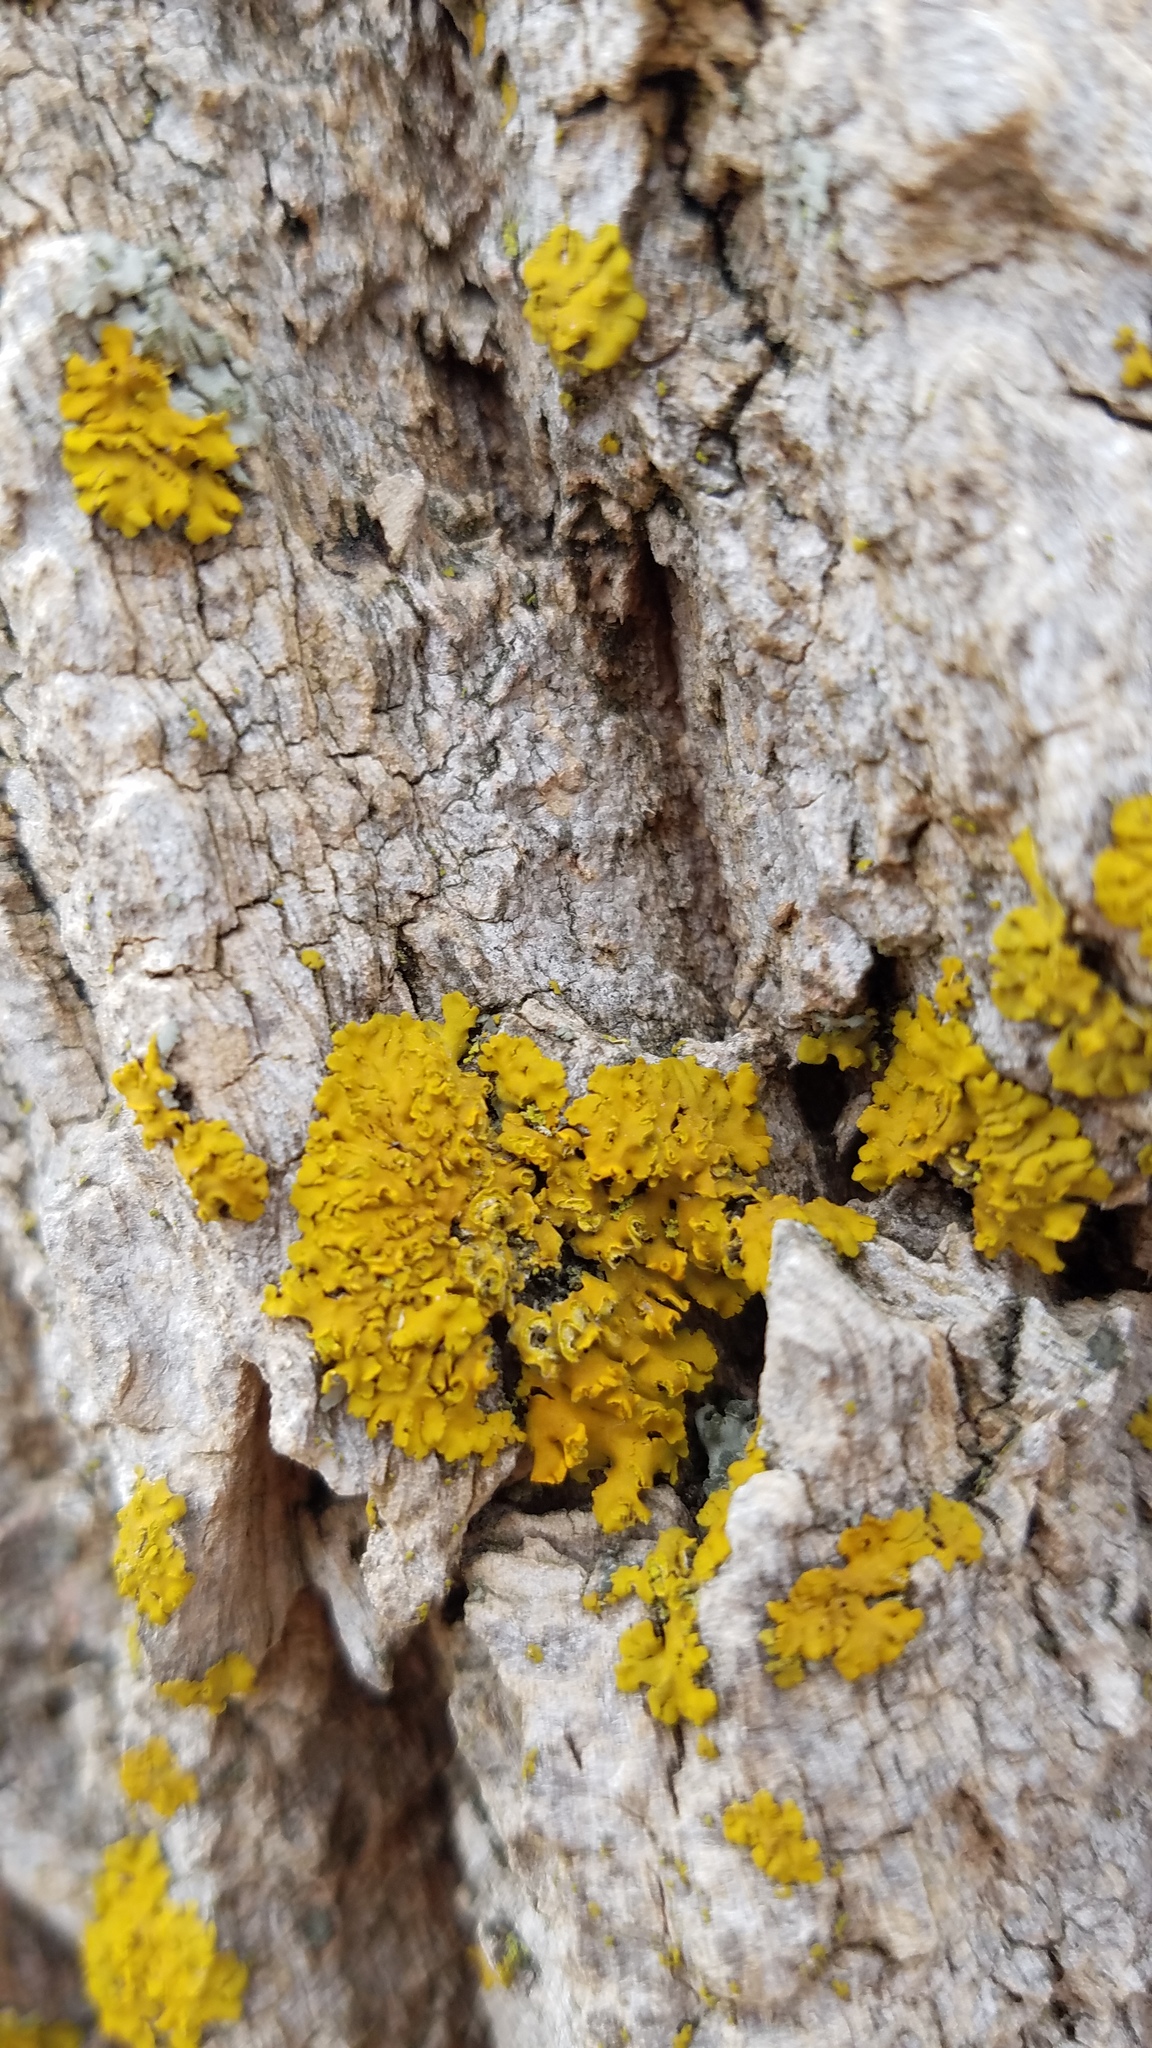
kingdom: Fungi
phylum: Ascomycota
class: Lecanoromycetes
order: Teloschistales
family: Teloschistaceae
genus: Oxneria
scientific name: Oxneria fallax
